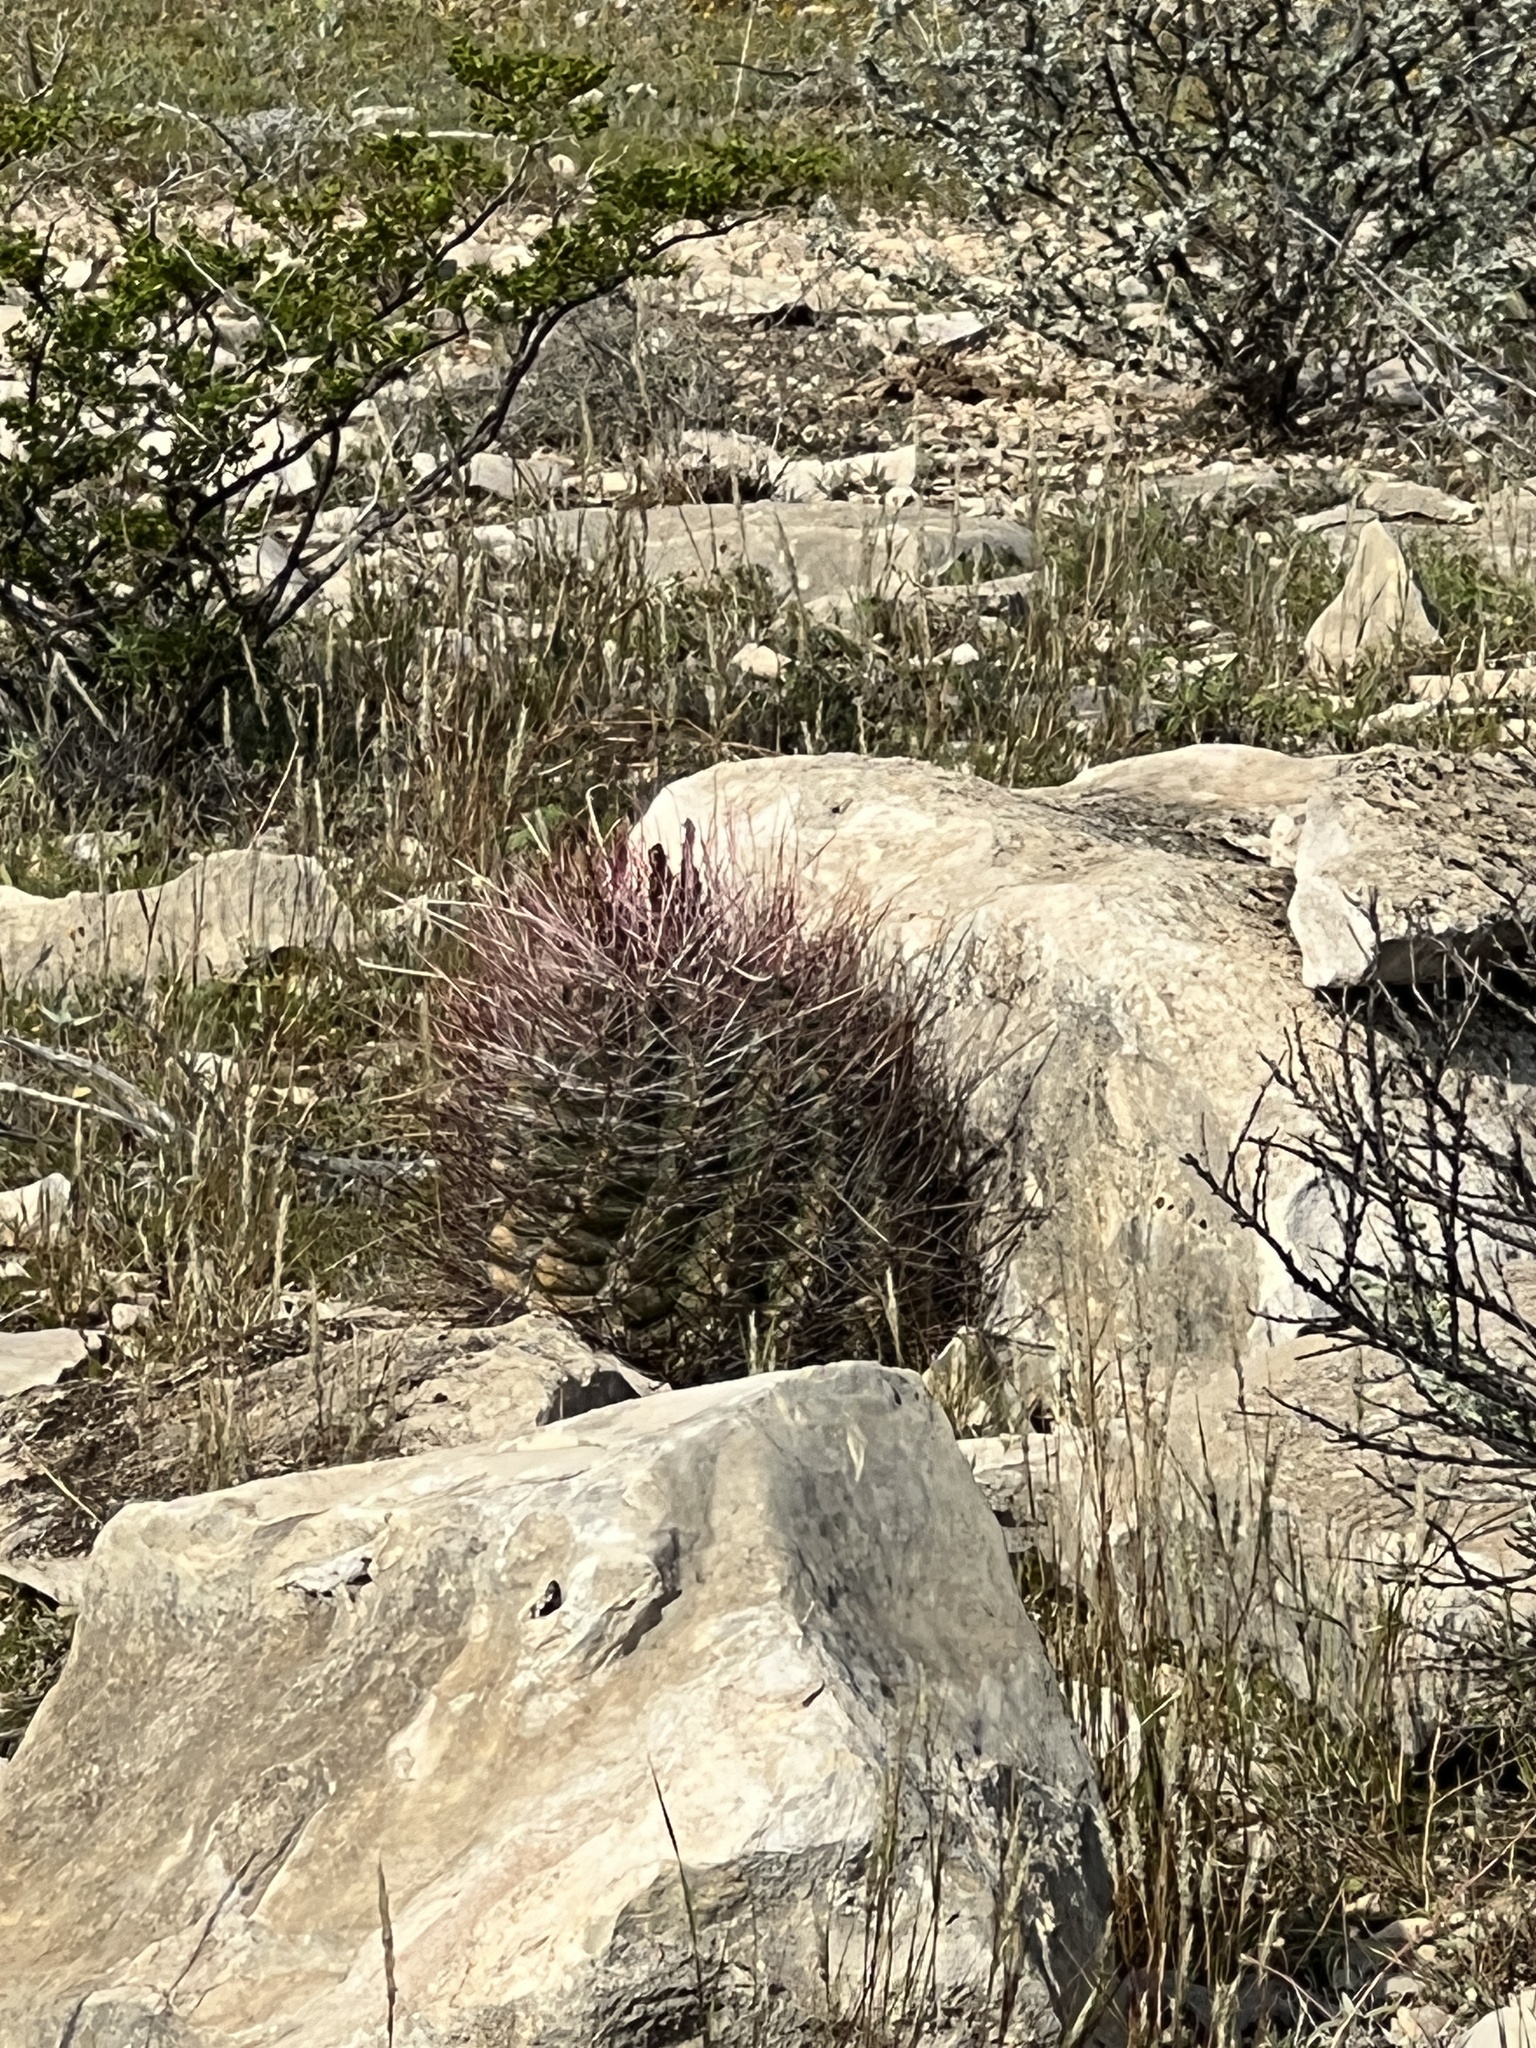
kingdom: Plantae
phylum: Tracheophyta
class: Magnoliopsida
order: Caryophyllales
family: Cactaceae
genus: Bisnaga
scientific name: Bisnaga hamatacantha
